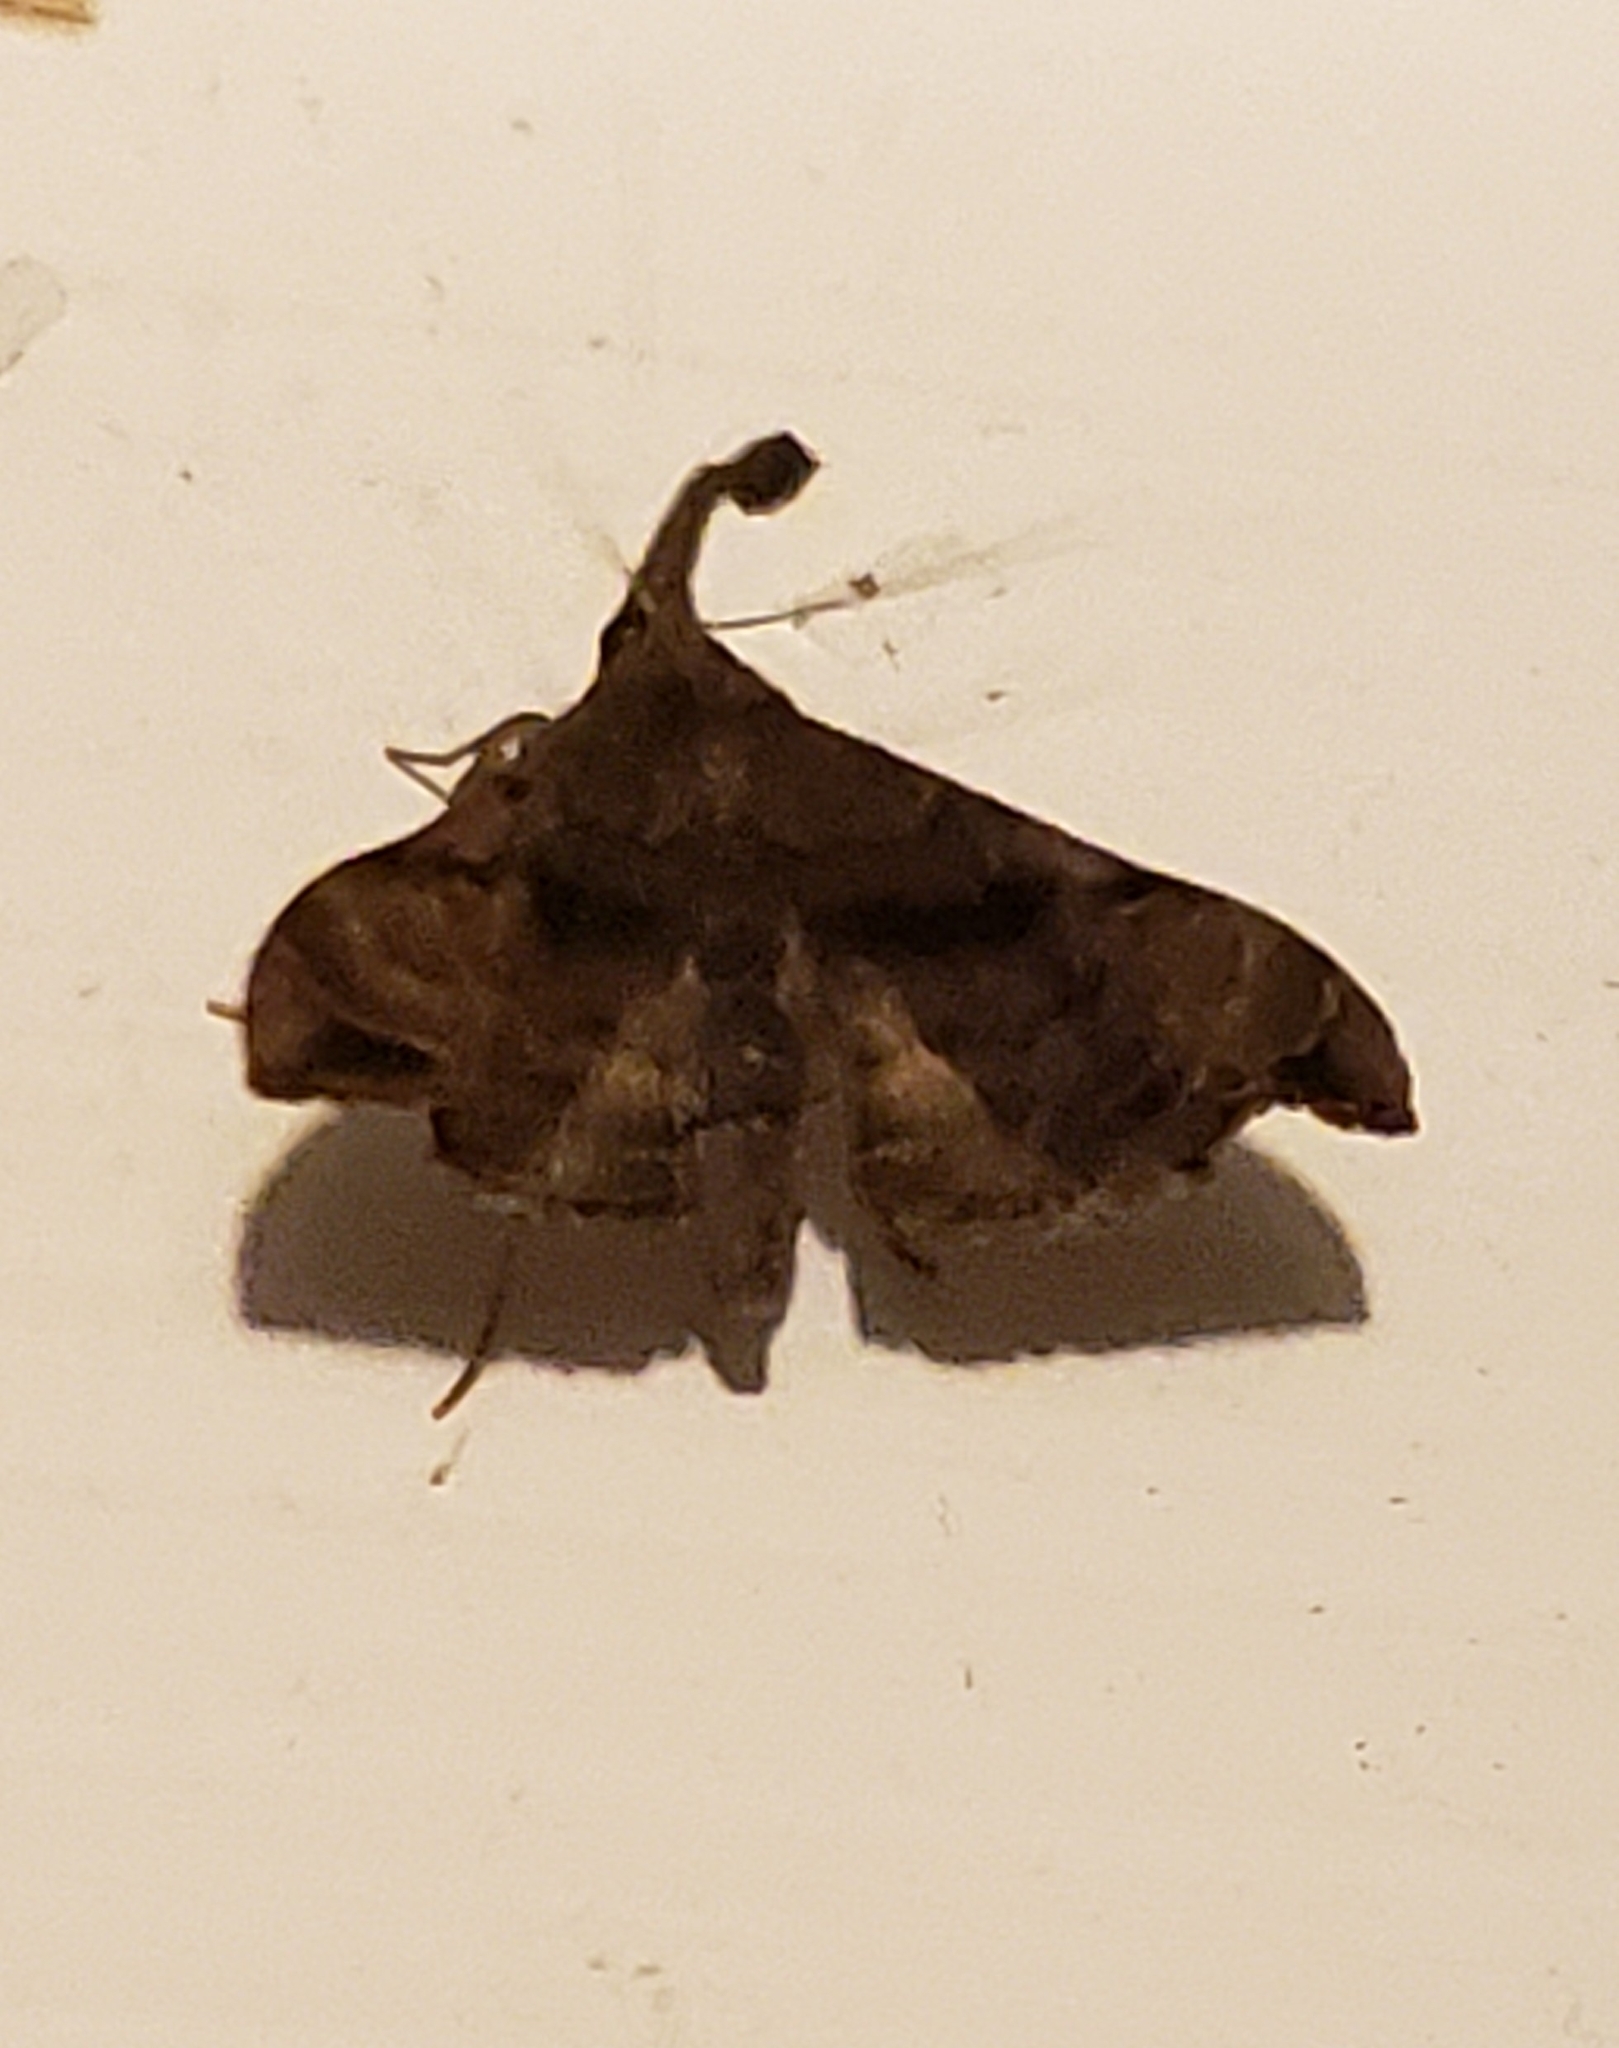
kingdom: Animalia
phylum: Arthropoda
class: Insecta
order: Lepidoptera
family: Erebidae
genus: Palthis
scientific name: Palthis asopialis
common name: Faint-spotted palthis moth
